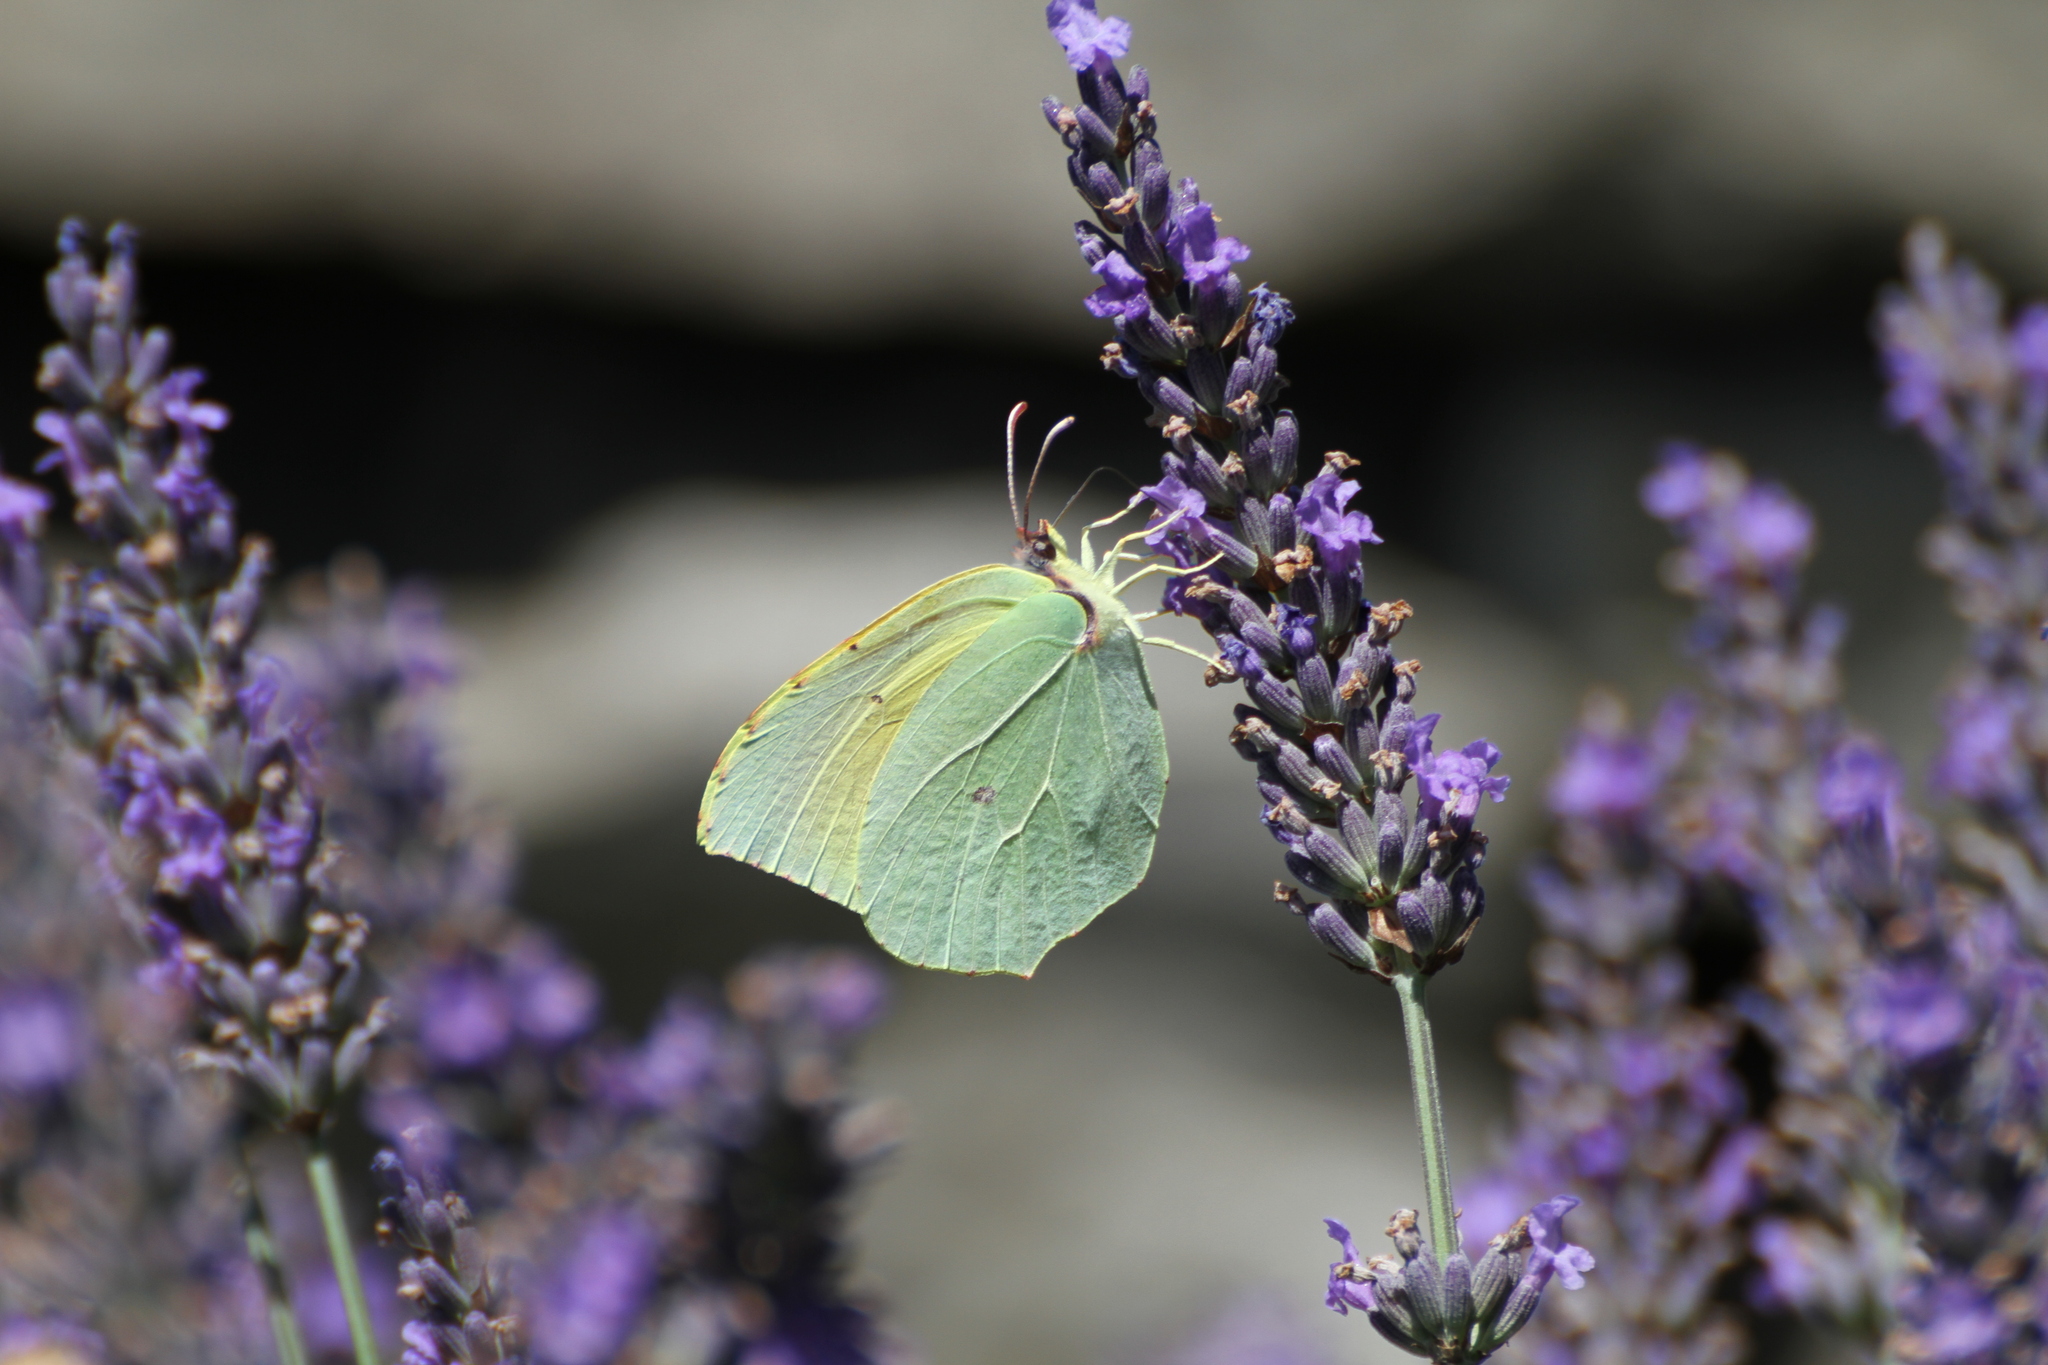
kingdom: Animalia
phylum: Arthropoda
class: Insecta
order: Lepidoptera
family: Pieridae
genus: Gonepteryx
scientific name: Gonepteryx cleopatra
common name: Cleopatra
